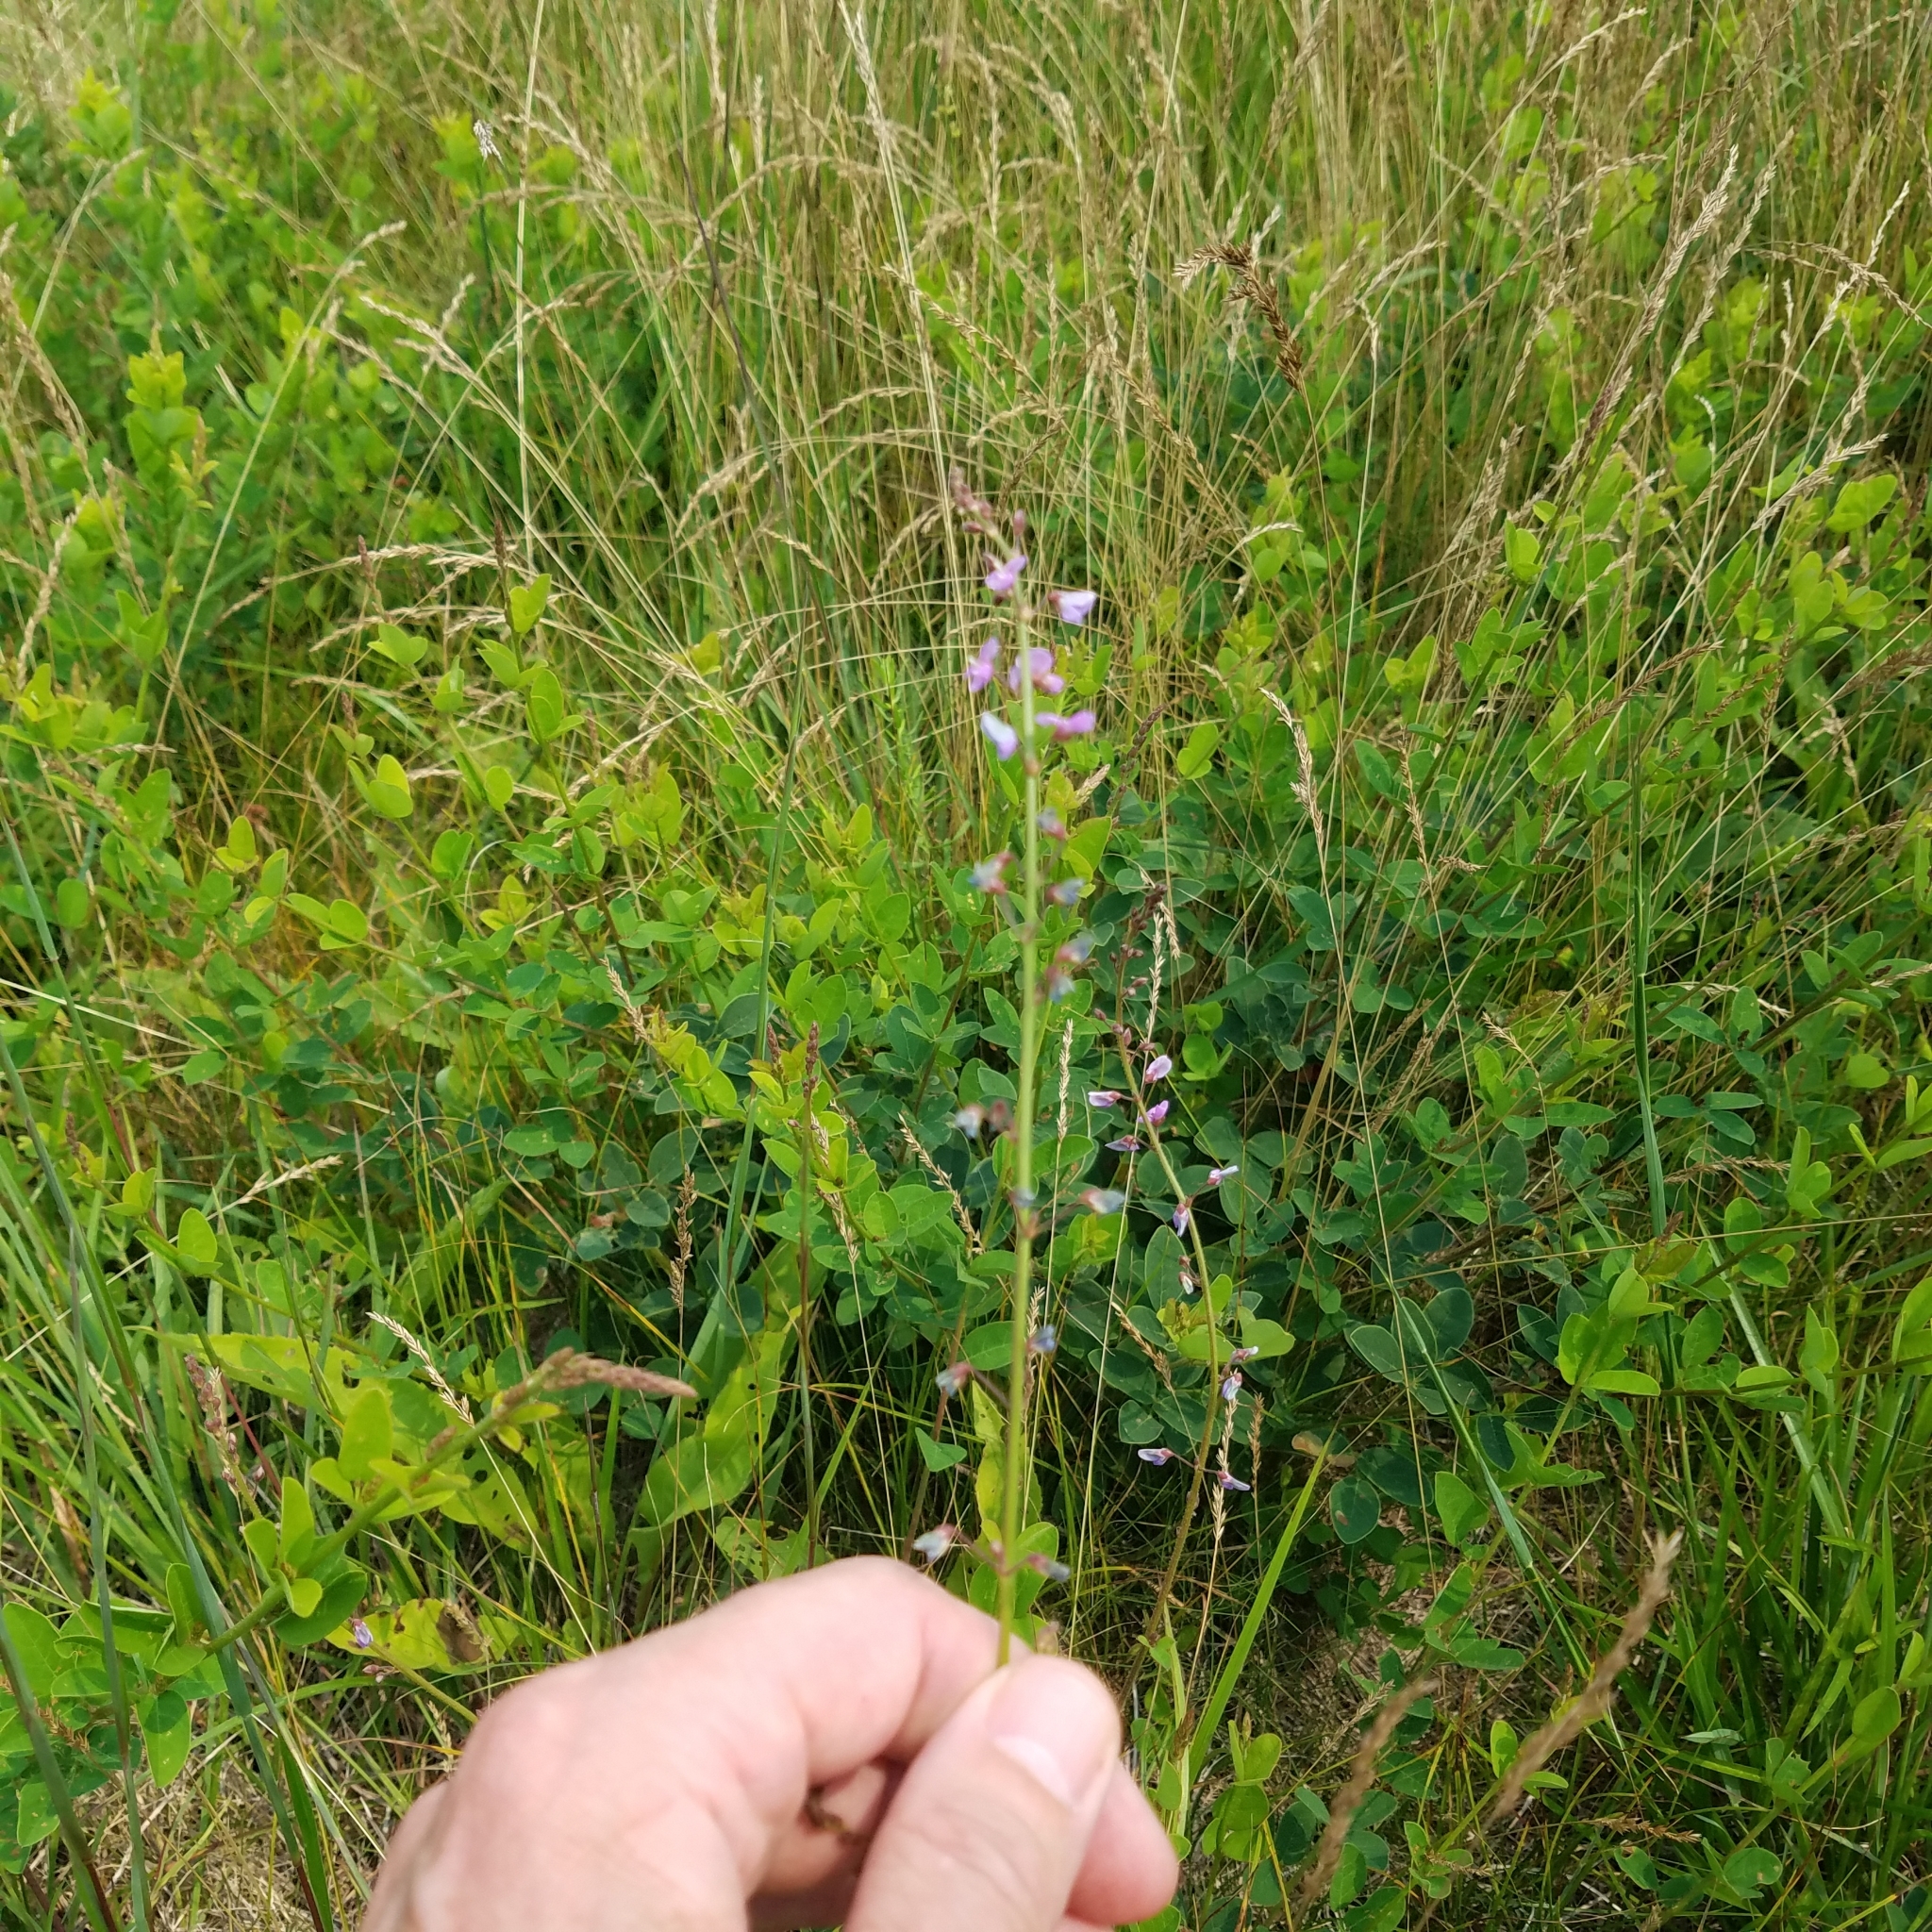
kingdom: Plantae
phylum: Tracheophyta
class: Magnoliopsida
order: Fabales
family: Fabaceae
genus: Desmodium
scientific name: Desmodium ciliare
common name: Hairy small-leaf ticktrefoil
